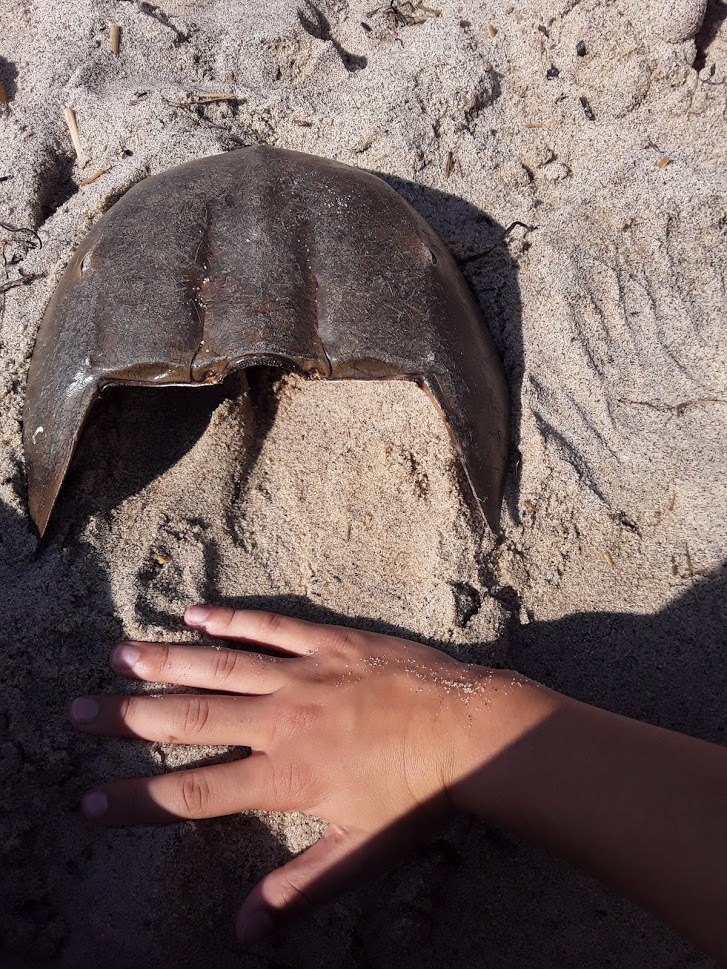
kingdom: Animalia
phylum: Arthropoda
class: Merostomata
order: Xiphosurida
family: Limulidae
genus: Limulus
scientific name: Limulus polyphemus
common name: Horseshoe crab
